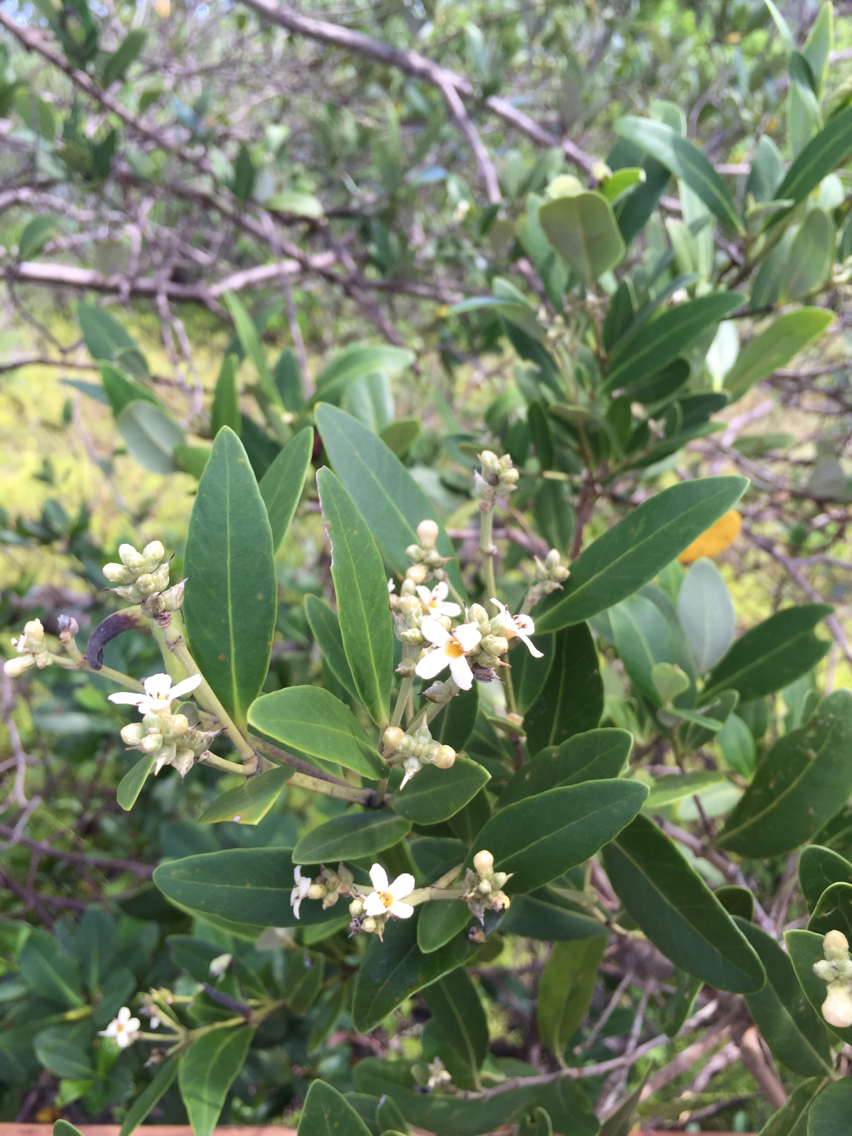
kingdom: Plantae
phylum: Tracheophyta
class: Magnoliopsida
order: Lamiales
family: Acanthaceae
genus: Avicennia
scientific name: Avicennia germinans
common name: Black mangrove
